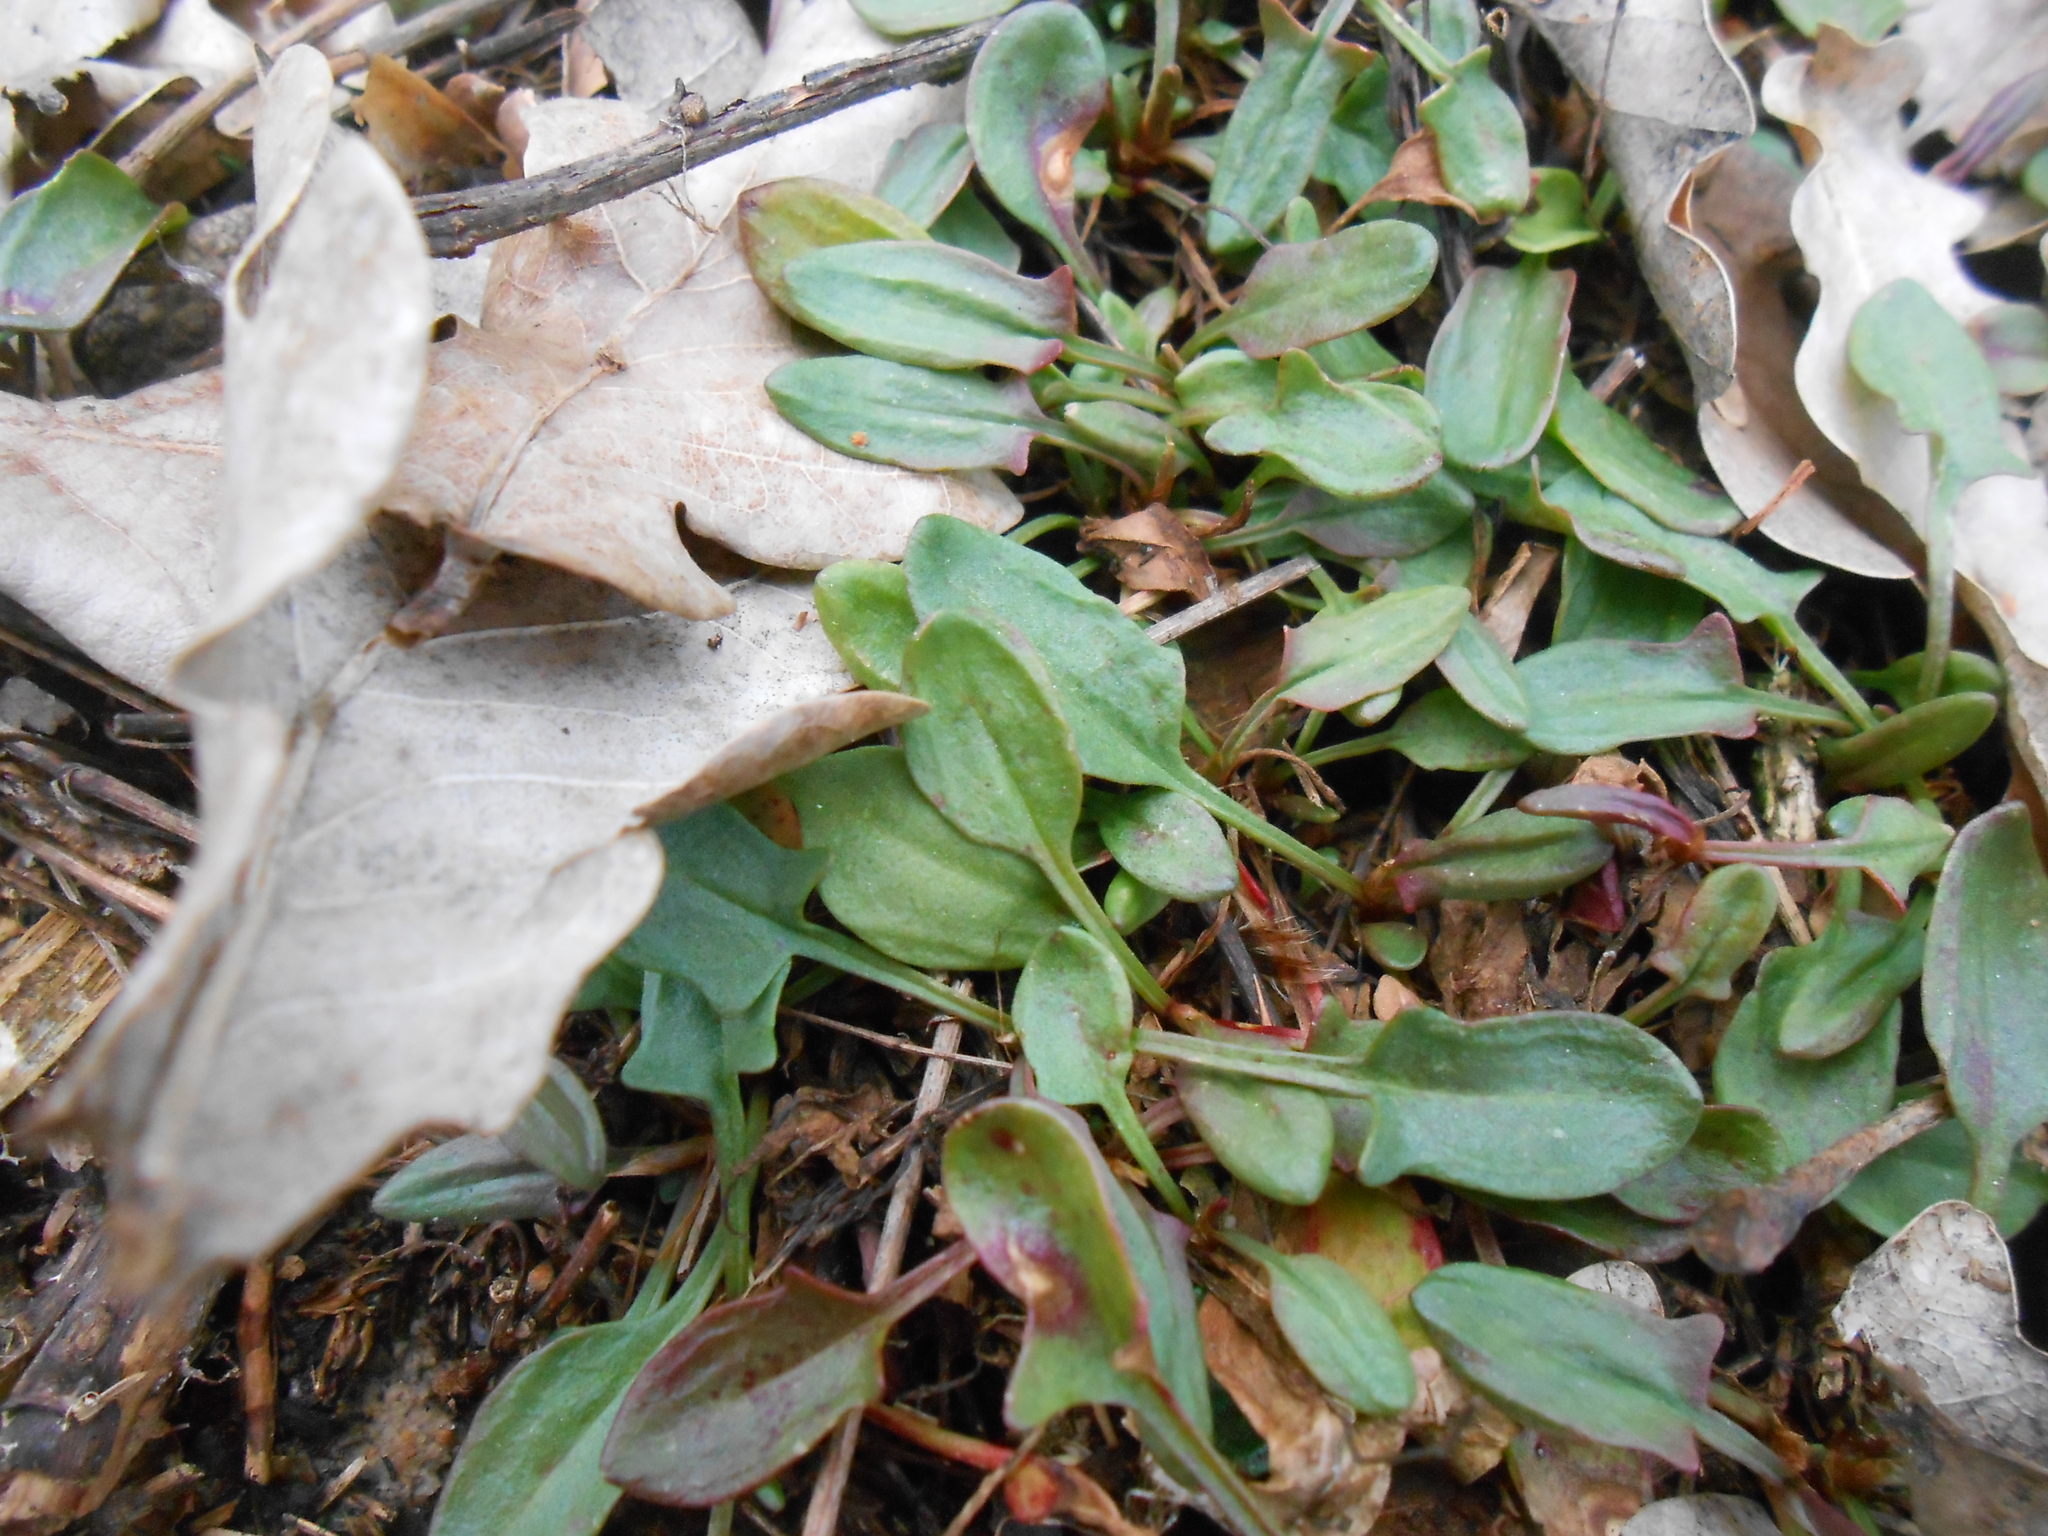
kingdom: Plantae
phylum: Tracheophyta
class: Magnoliopsida
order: Caryophyllales
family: Polygonaceae
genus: Rumex
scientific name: Rumex acetosella
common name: Common sheep sorrel
